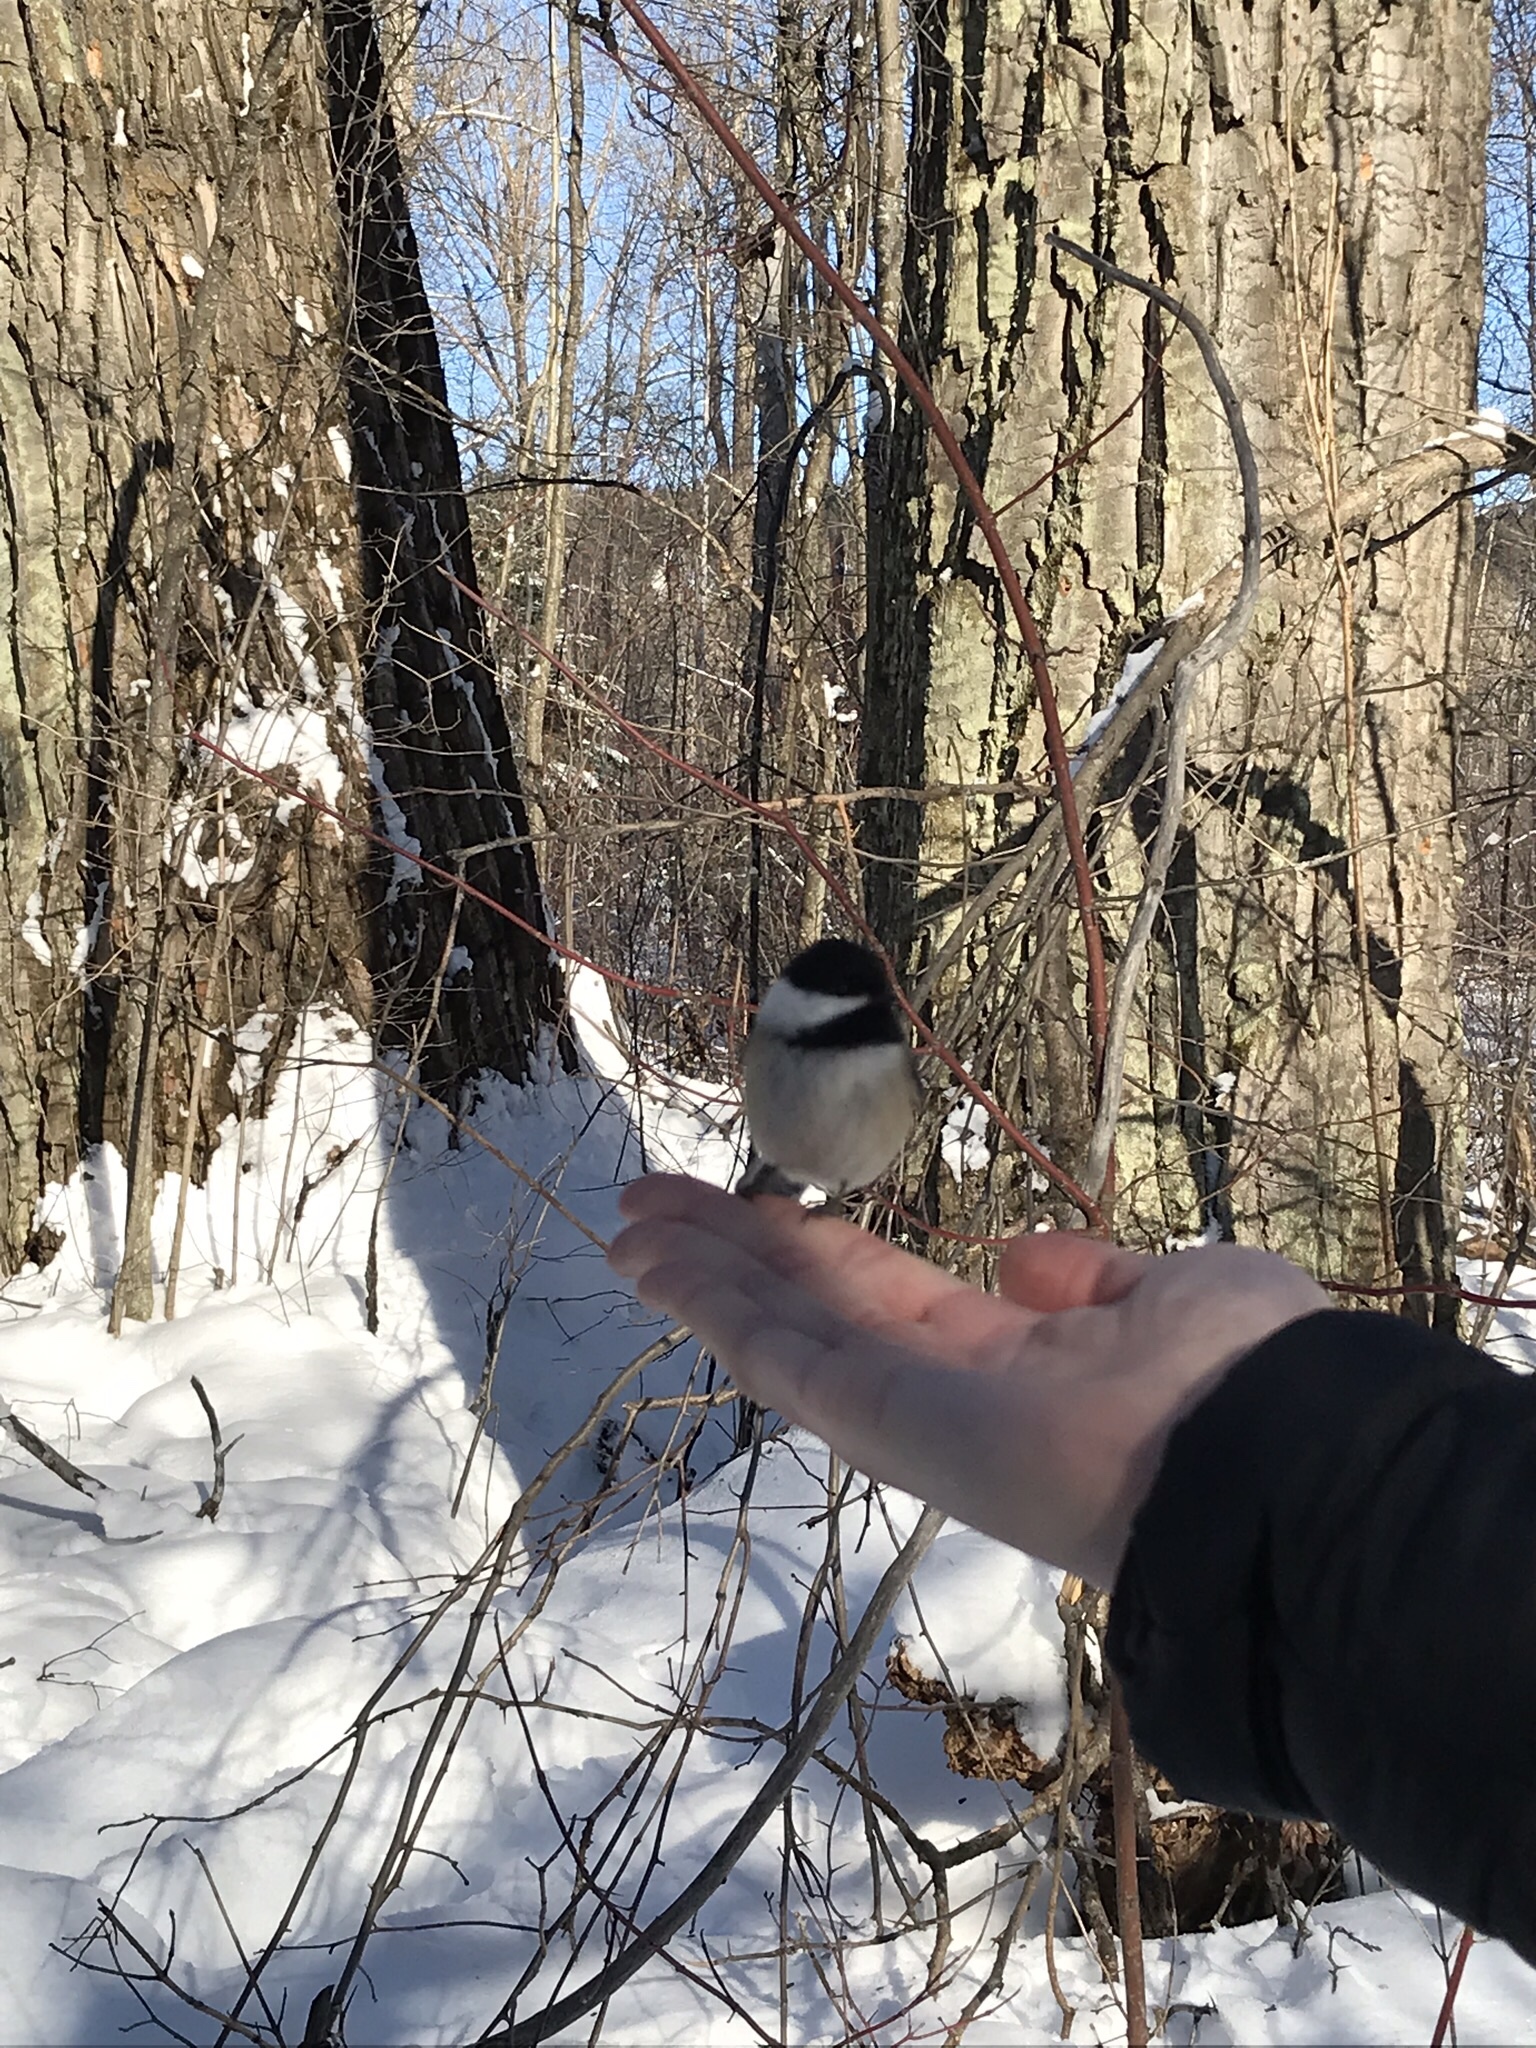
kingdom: Animalia
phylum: Chordata
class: Aves
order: Passeriformes
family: Paridae
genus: Poecile
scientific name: Poecile atricapillus
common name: Black-capped chickadee
